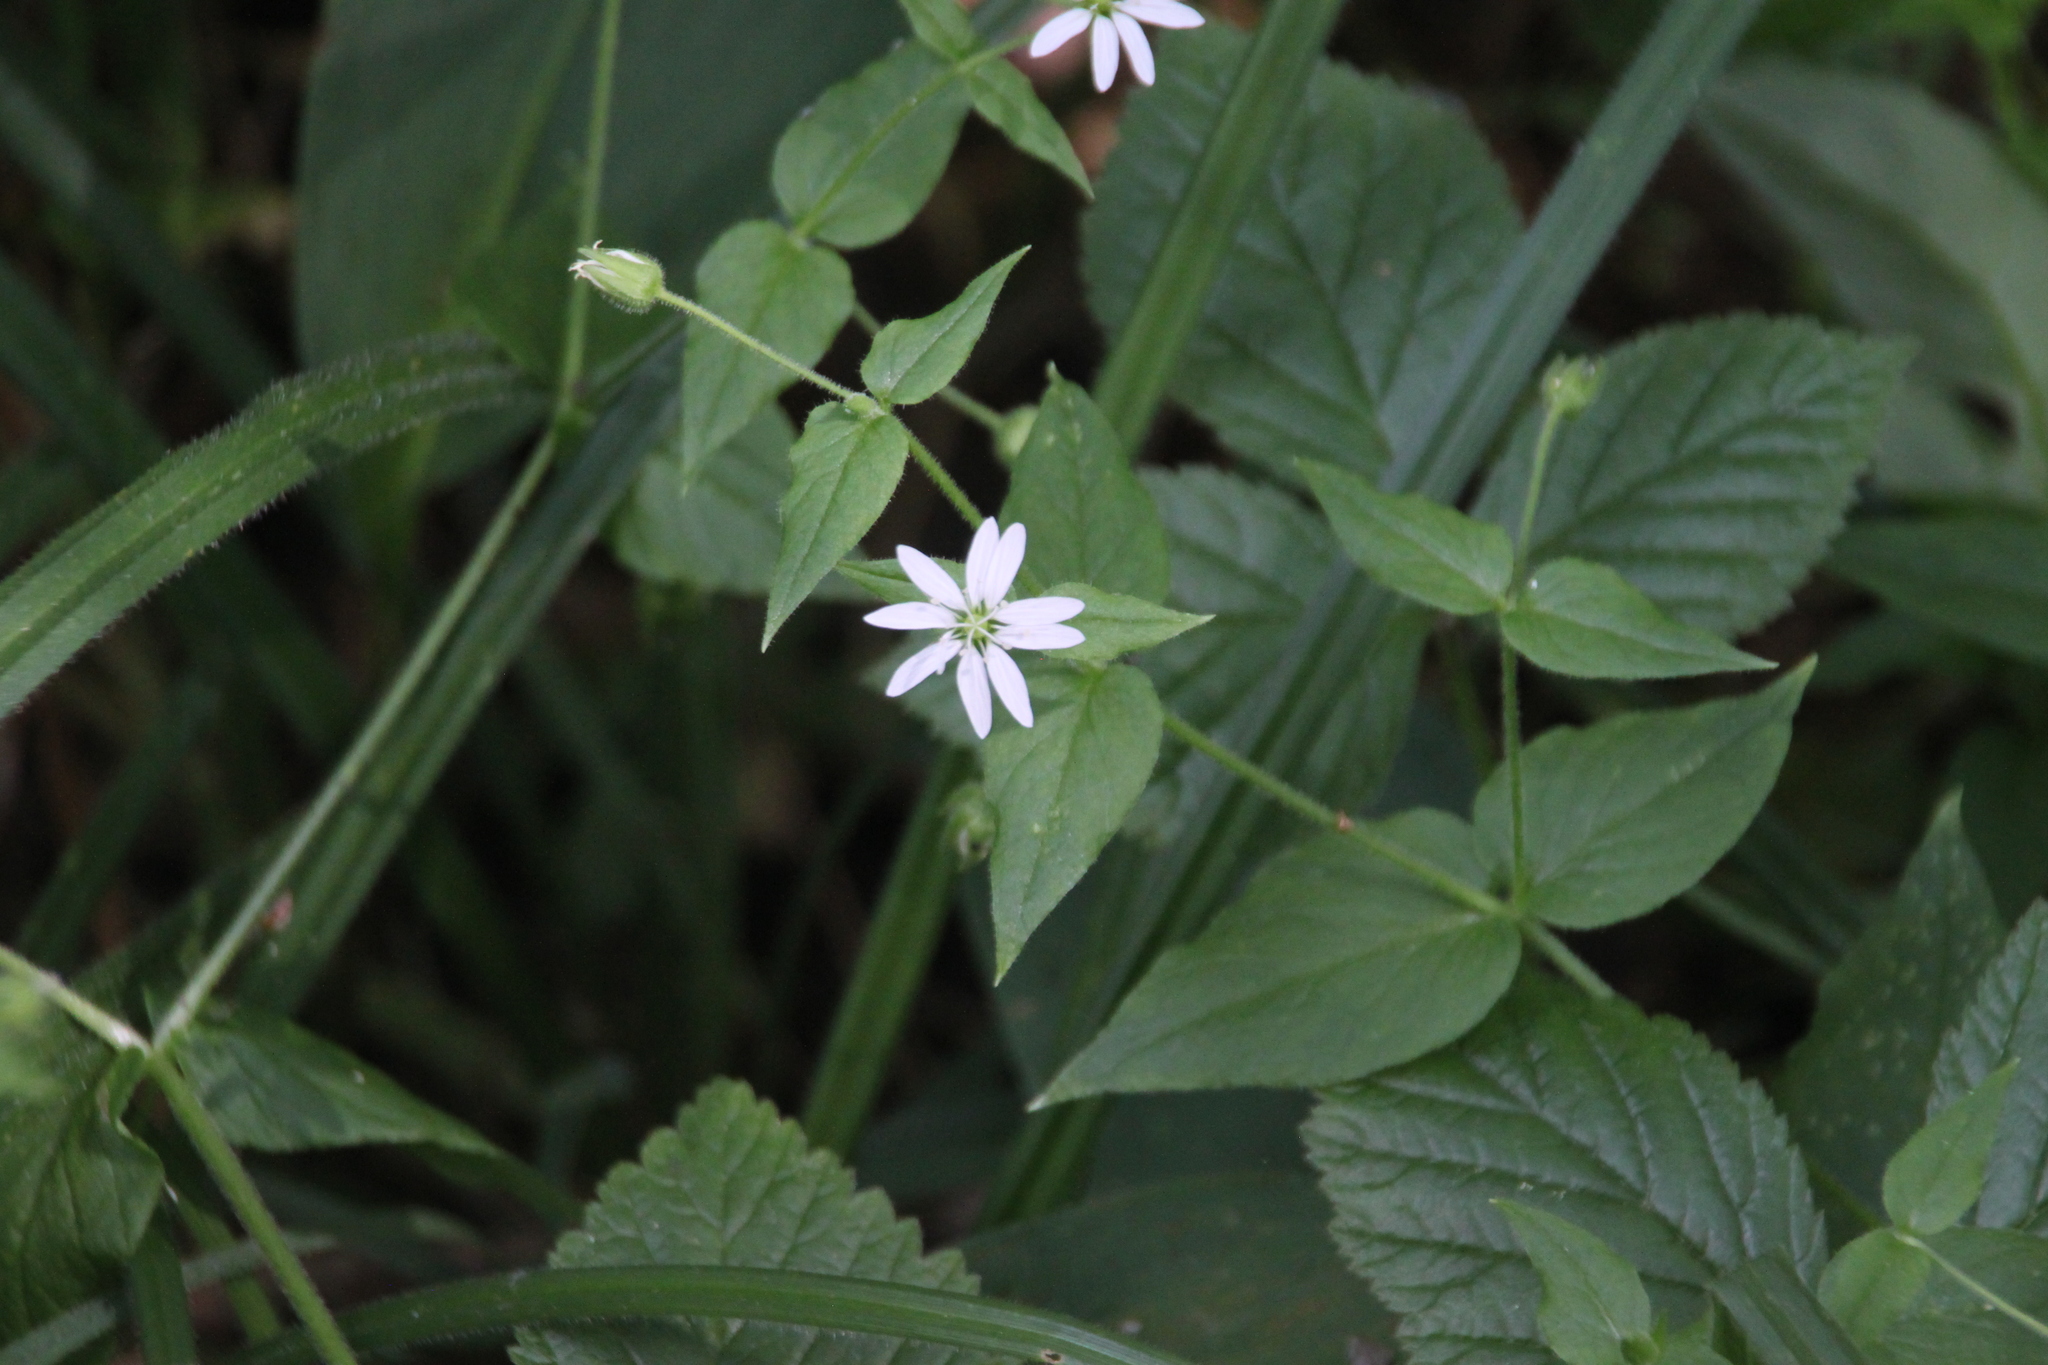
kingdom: Plantae
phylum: Tracheophyta
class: Magnoliopsida
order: Caryophyllales
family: Caryophyllaceae
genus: Stellaria
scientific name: Stellaria aquatica
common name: Water chickweed
